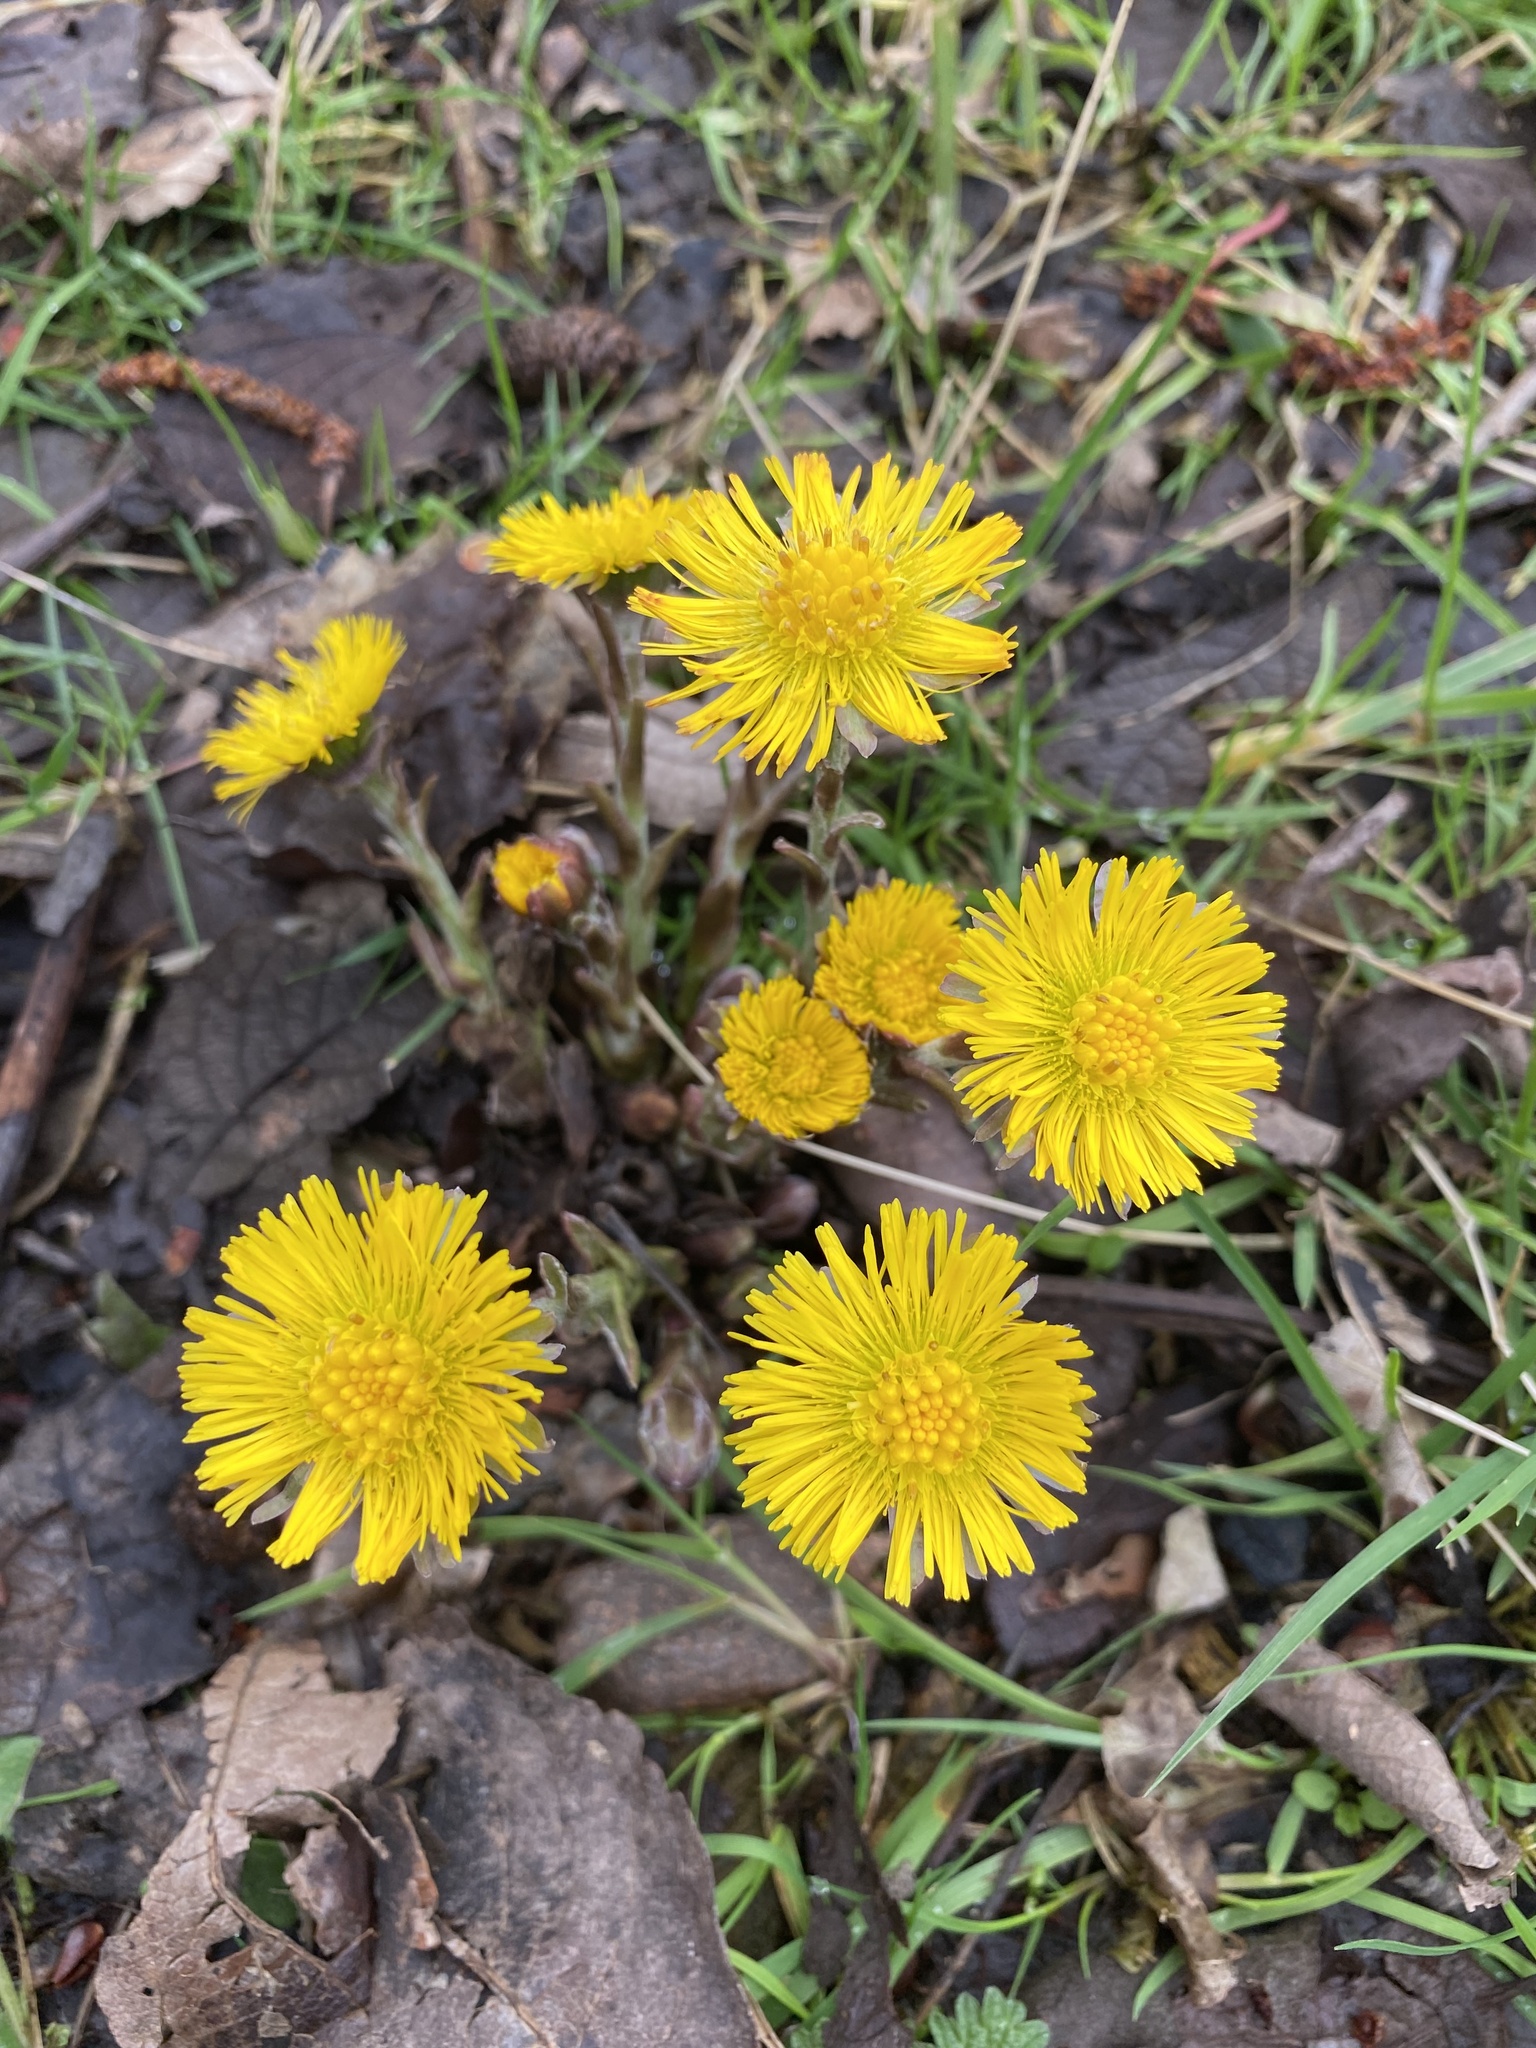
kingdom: Plantae
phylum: Tracheophyta
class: Magnoliopsida
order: Asterales
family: Asteraceae
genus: Tussilago
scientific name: Tussilago farfara
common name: Coltsfoot
